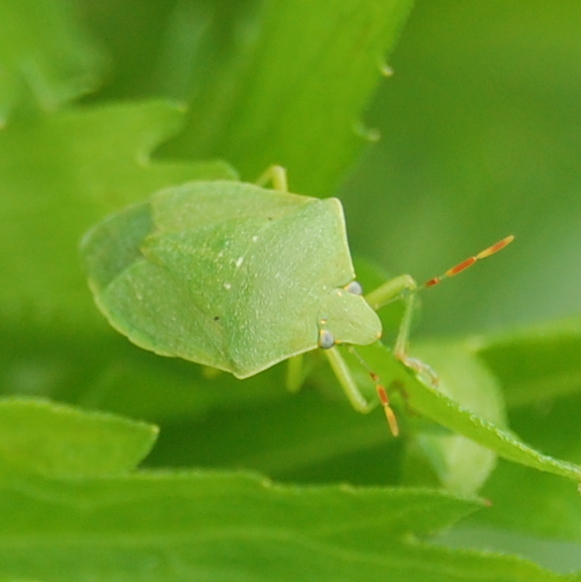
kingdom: Animalia
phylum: Arthropoda
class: Insecta
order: Hemiptera
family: Pentatomidae
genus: Nezara
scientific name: Nezara viridula
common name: Southern green stink bug
